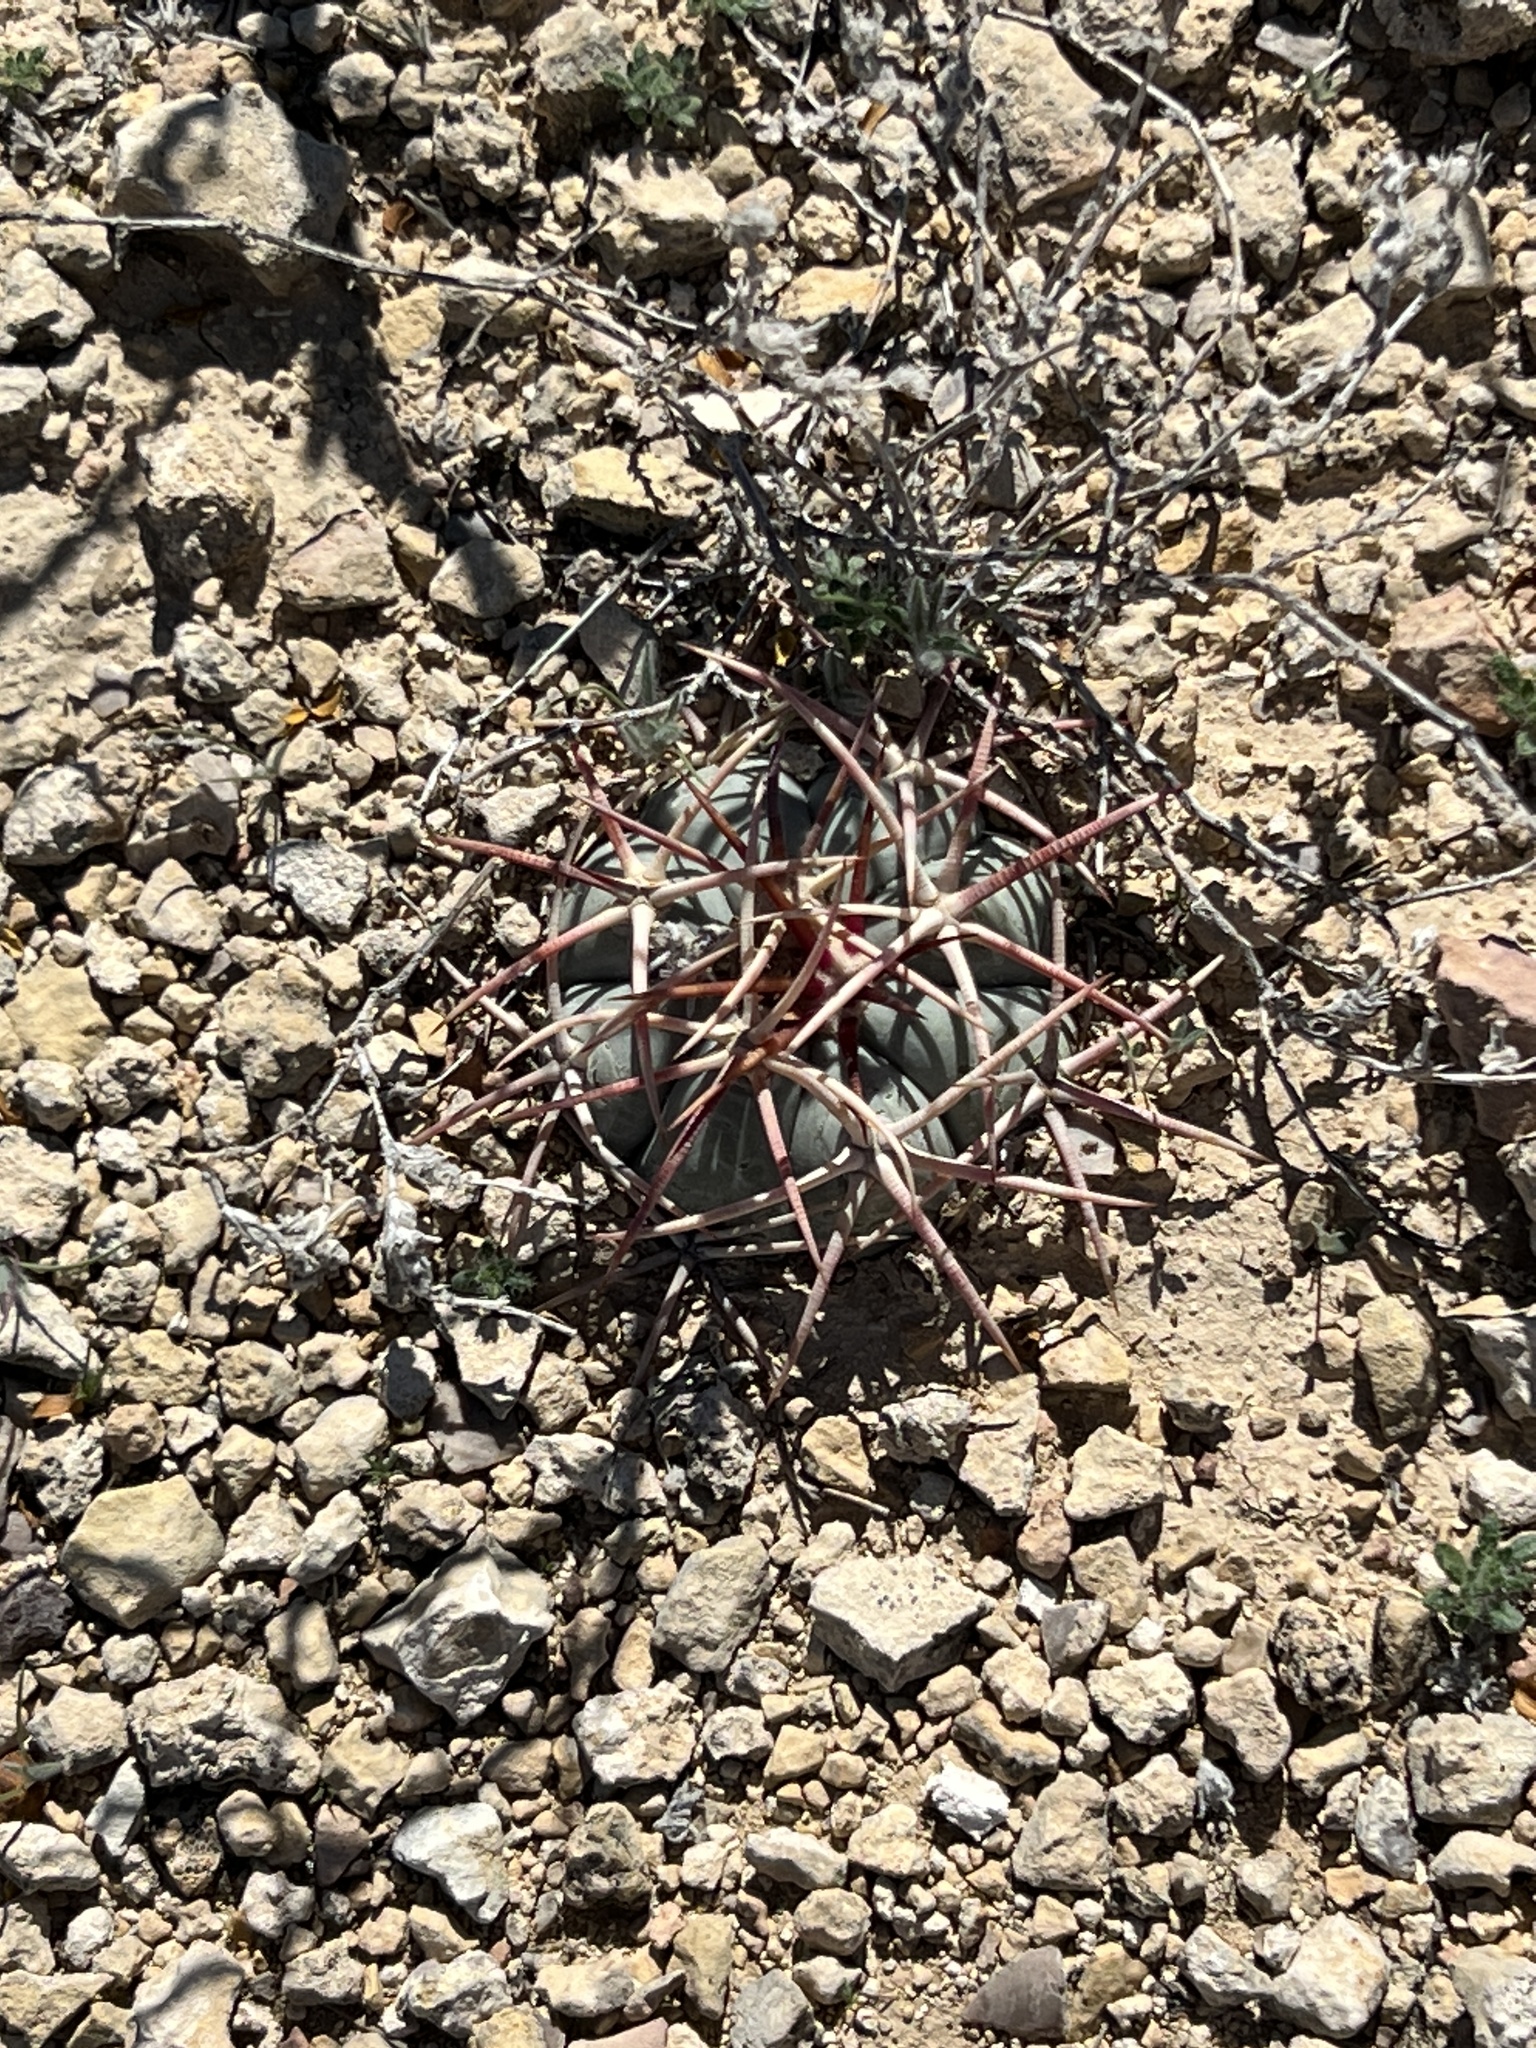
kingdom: Plantae
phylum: Tracheophyta
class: Magnoliopsida
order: Caryophyllales
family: Cactaceae
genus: Echinocactus
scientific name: Echinocactus horizonthalonius
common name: Devilshead
